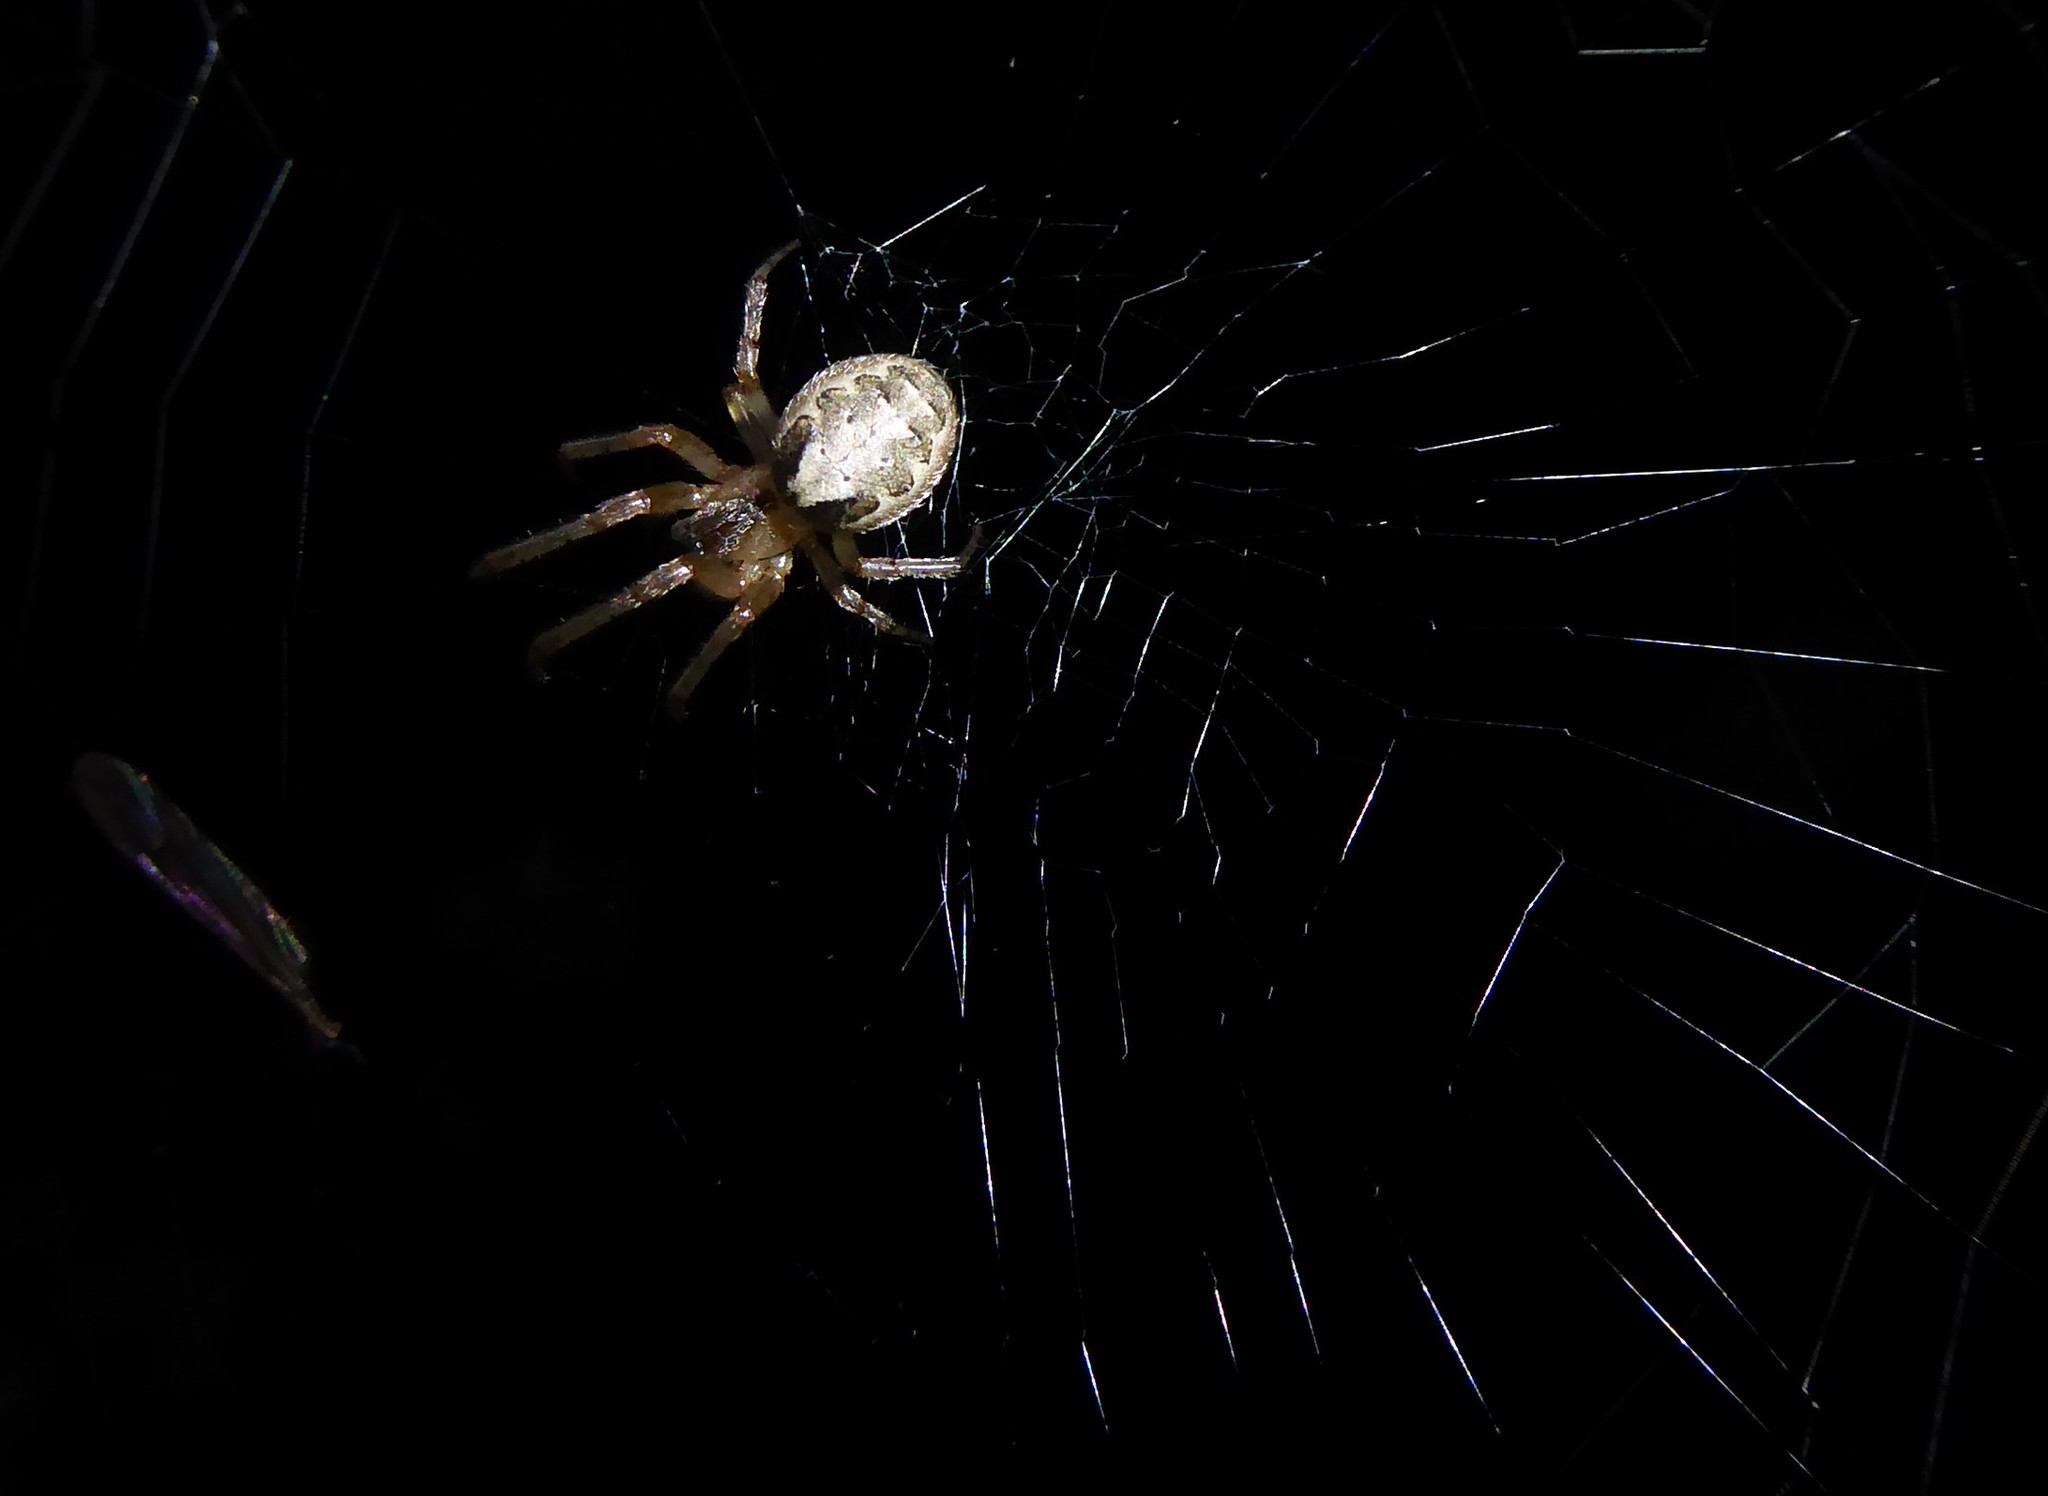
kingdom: Animalia
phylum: Arthropoda
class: Arachnida
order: Araneae
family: Araneidae
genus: Zygiella
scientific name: Zygiella x-notata
